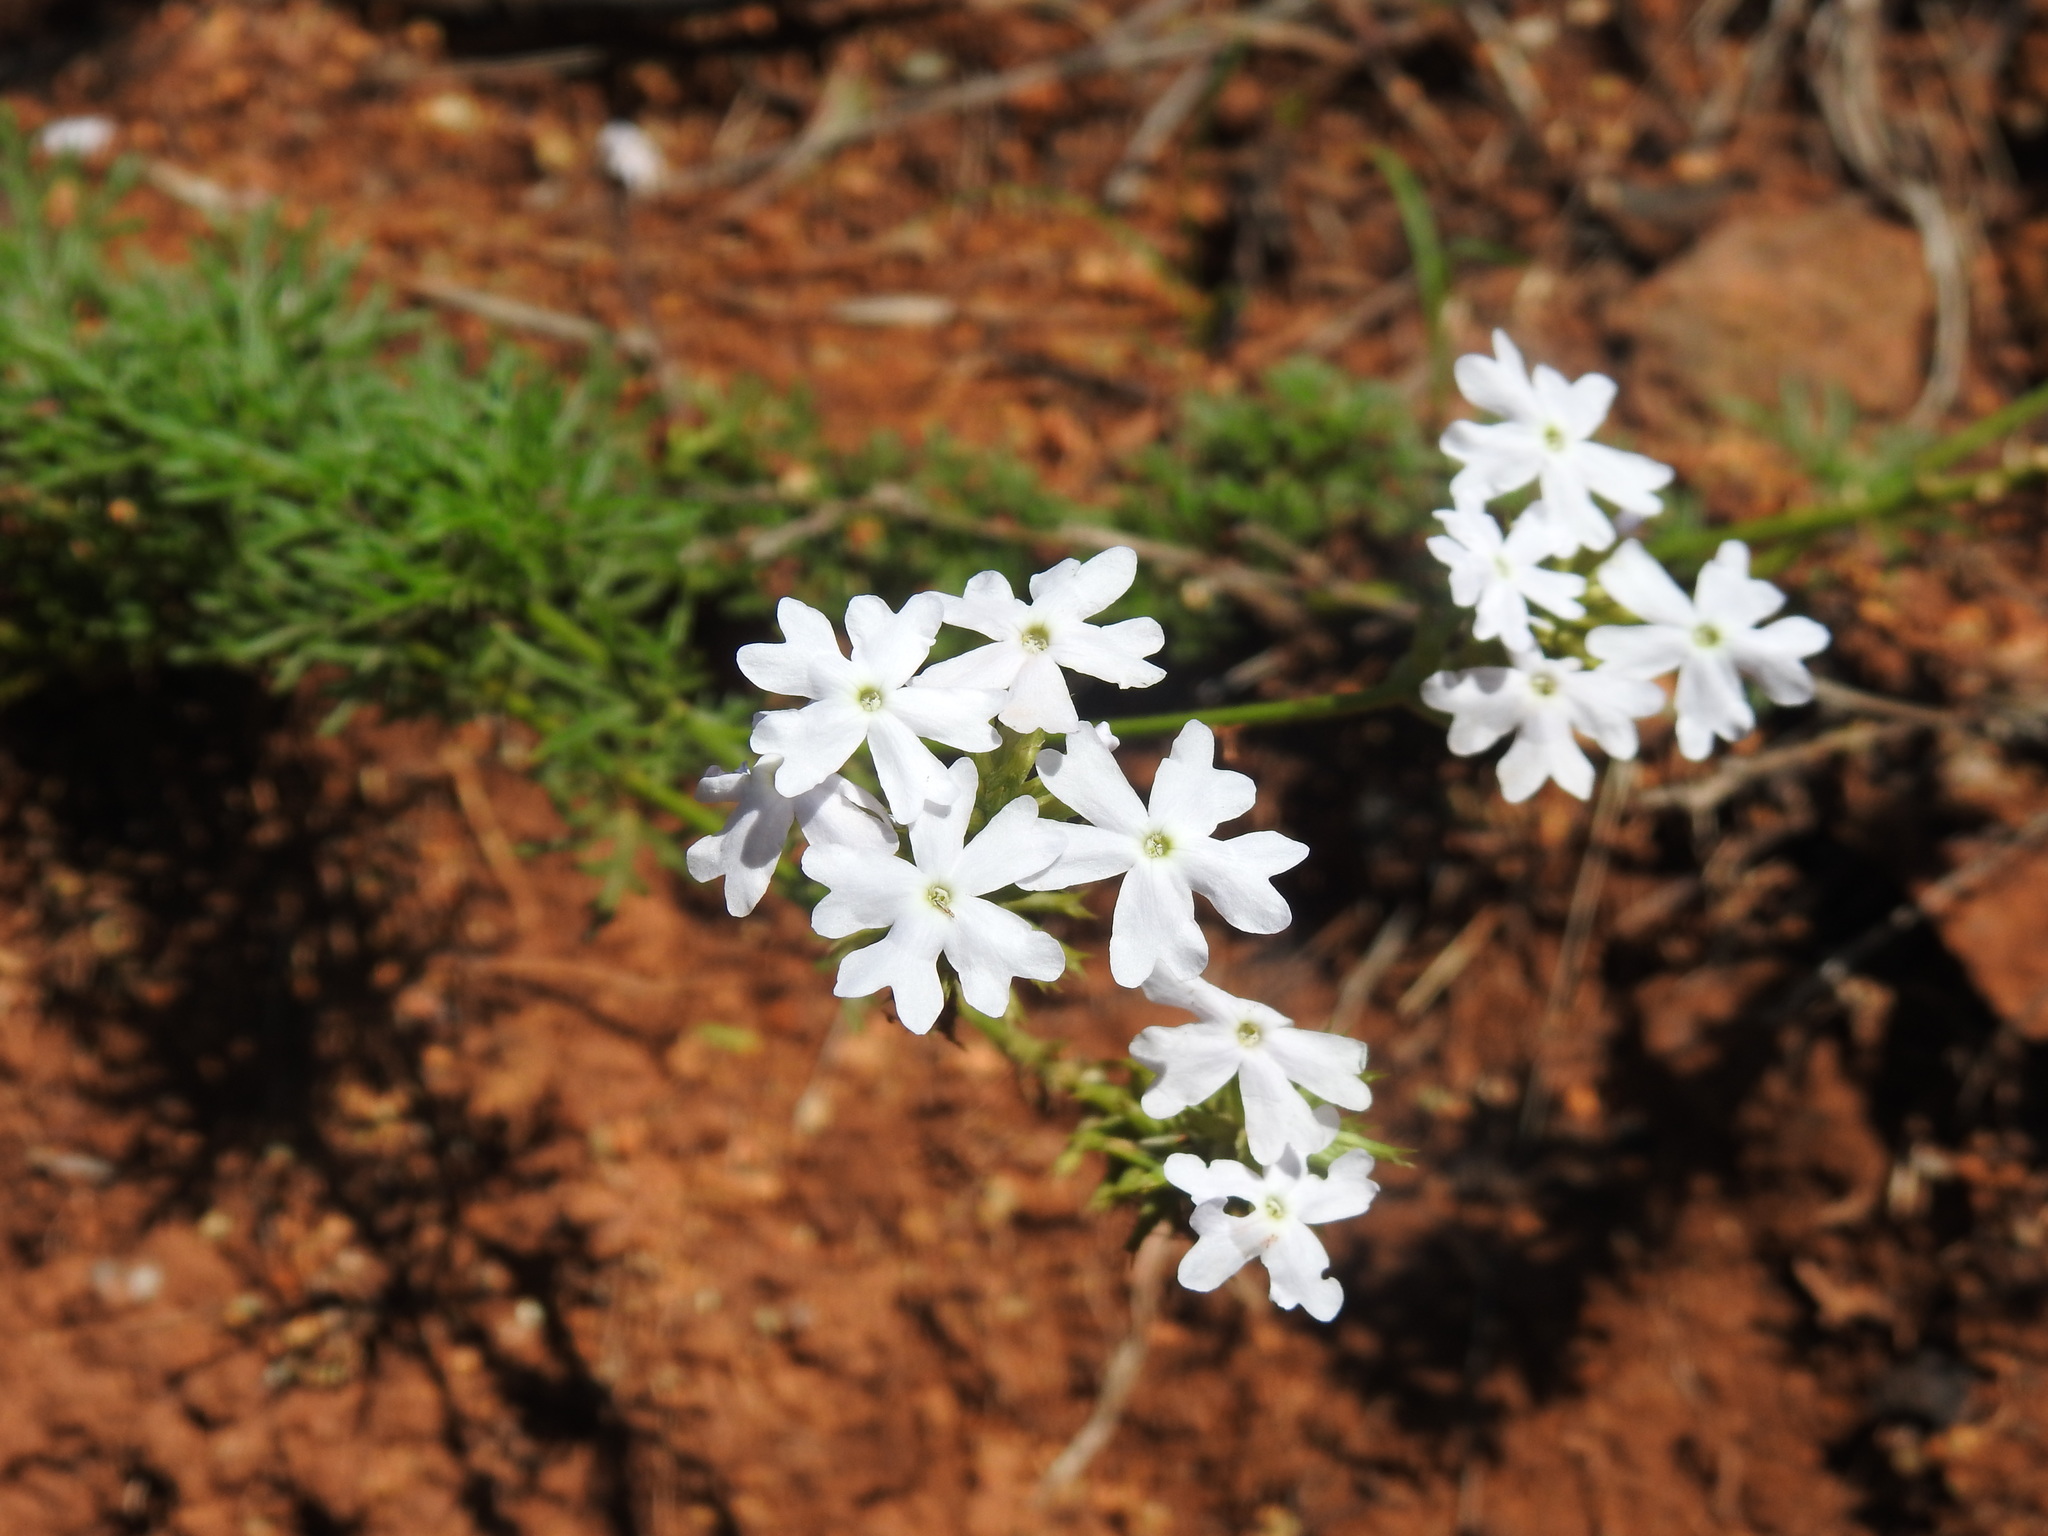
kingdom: Plantae
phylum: Tracheophyta
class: Magnoliopsida
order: Lamiales
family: Verbenaceae
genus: Verbena
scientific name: Verbena aristigera
